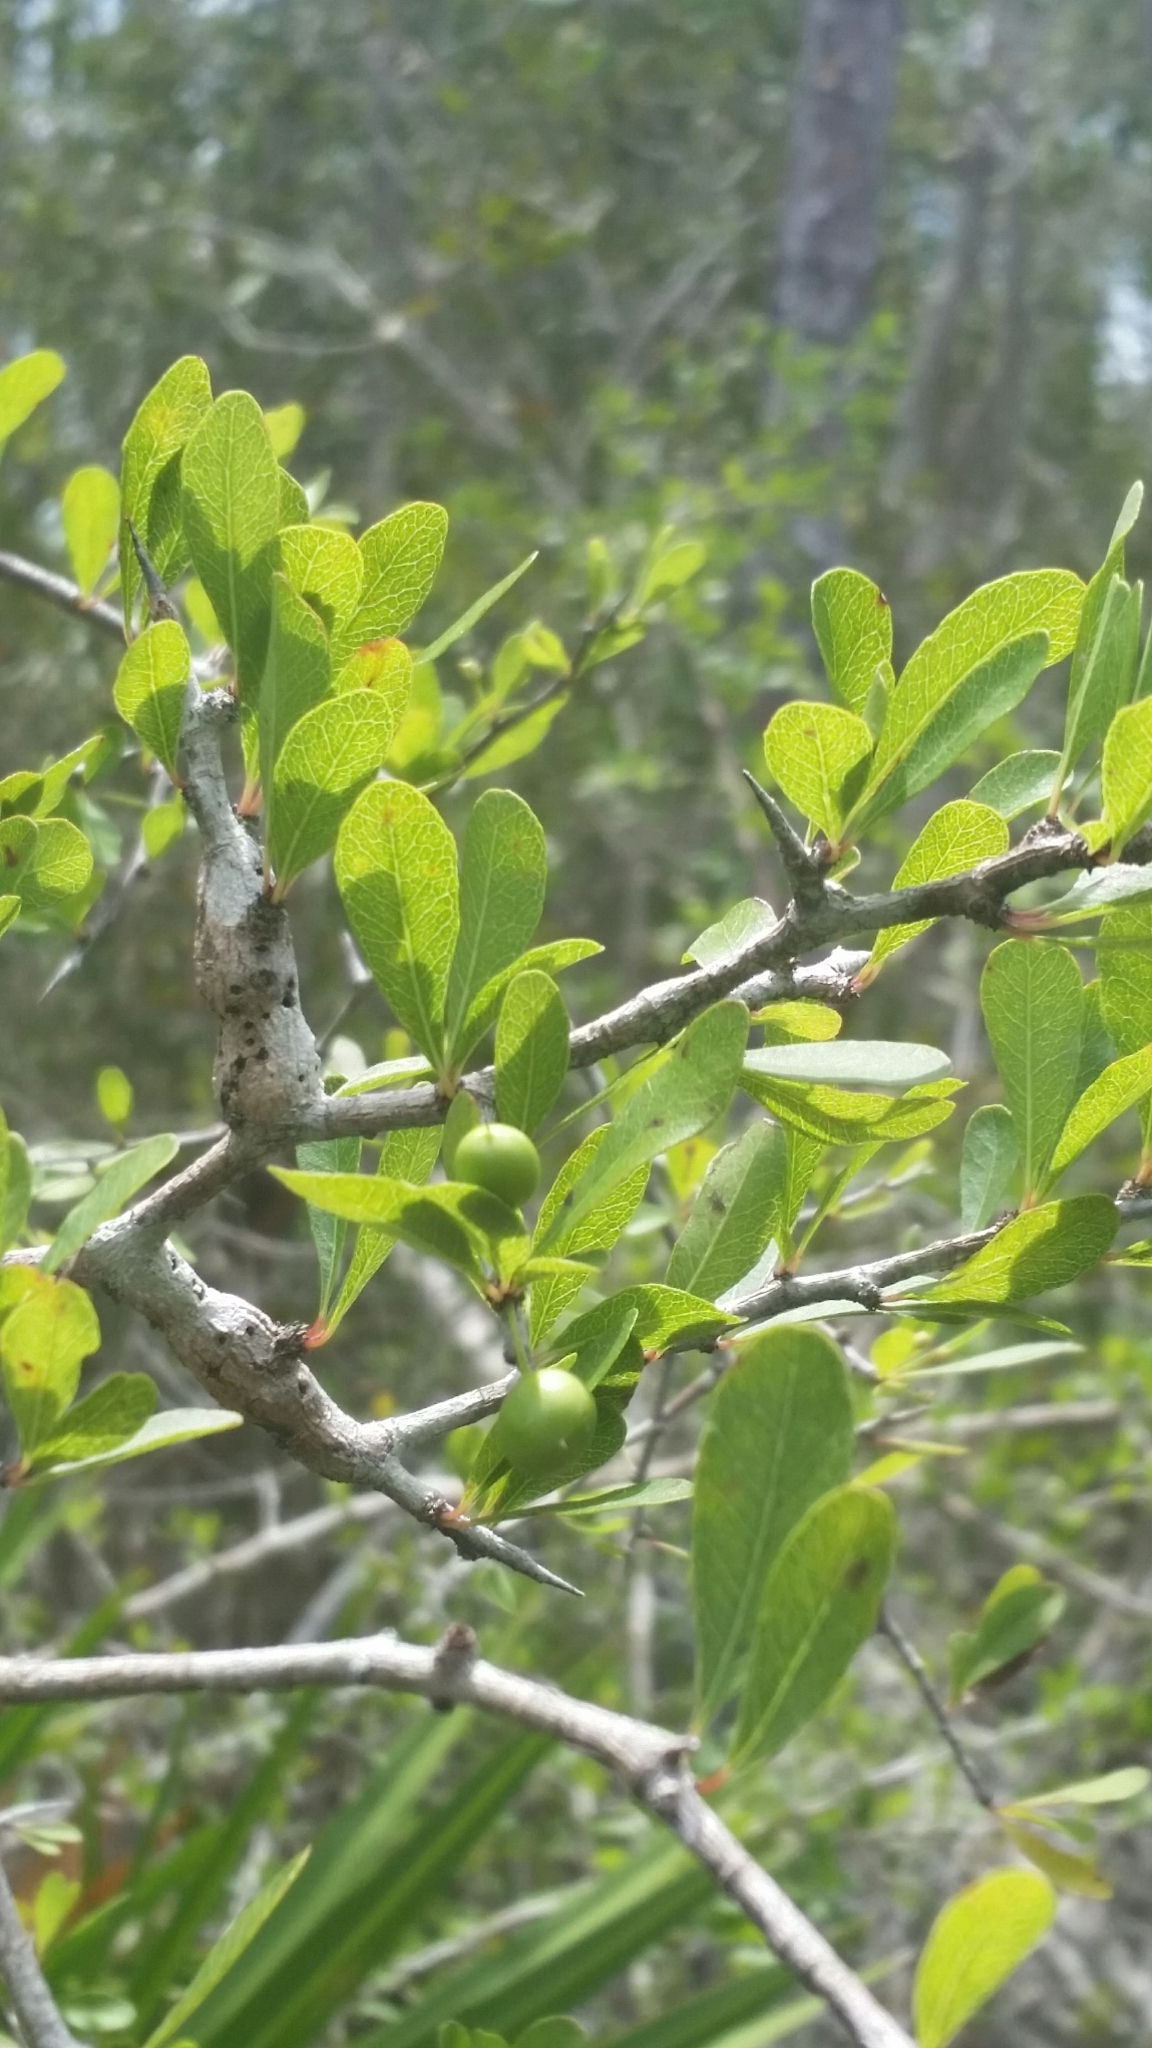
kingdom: Plantae
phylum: Tracheophyta
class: Magnoliopsida
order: Ericales
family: Sapotaceae
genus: Sideroxylon
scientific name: Sideroxylon reclinatum
